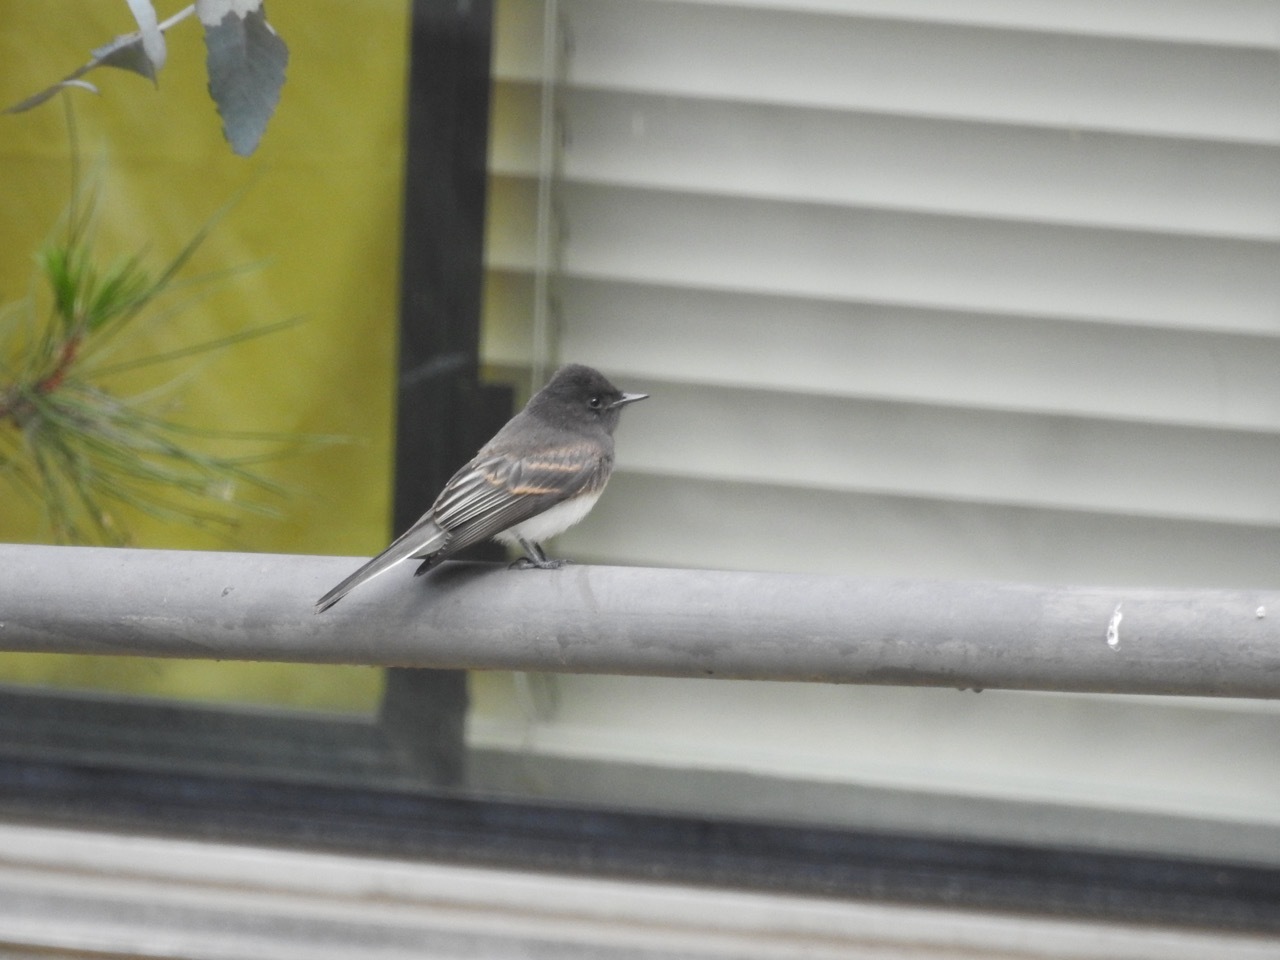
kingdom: Animalia
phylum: Chordata
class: Aves
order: Passeriformes
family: Tyrannidae
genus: Sayornis
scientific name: Sayornis nigricans
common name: Black phoebe
